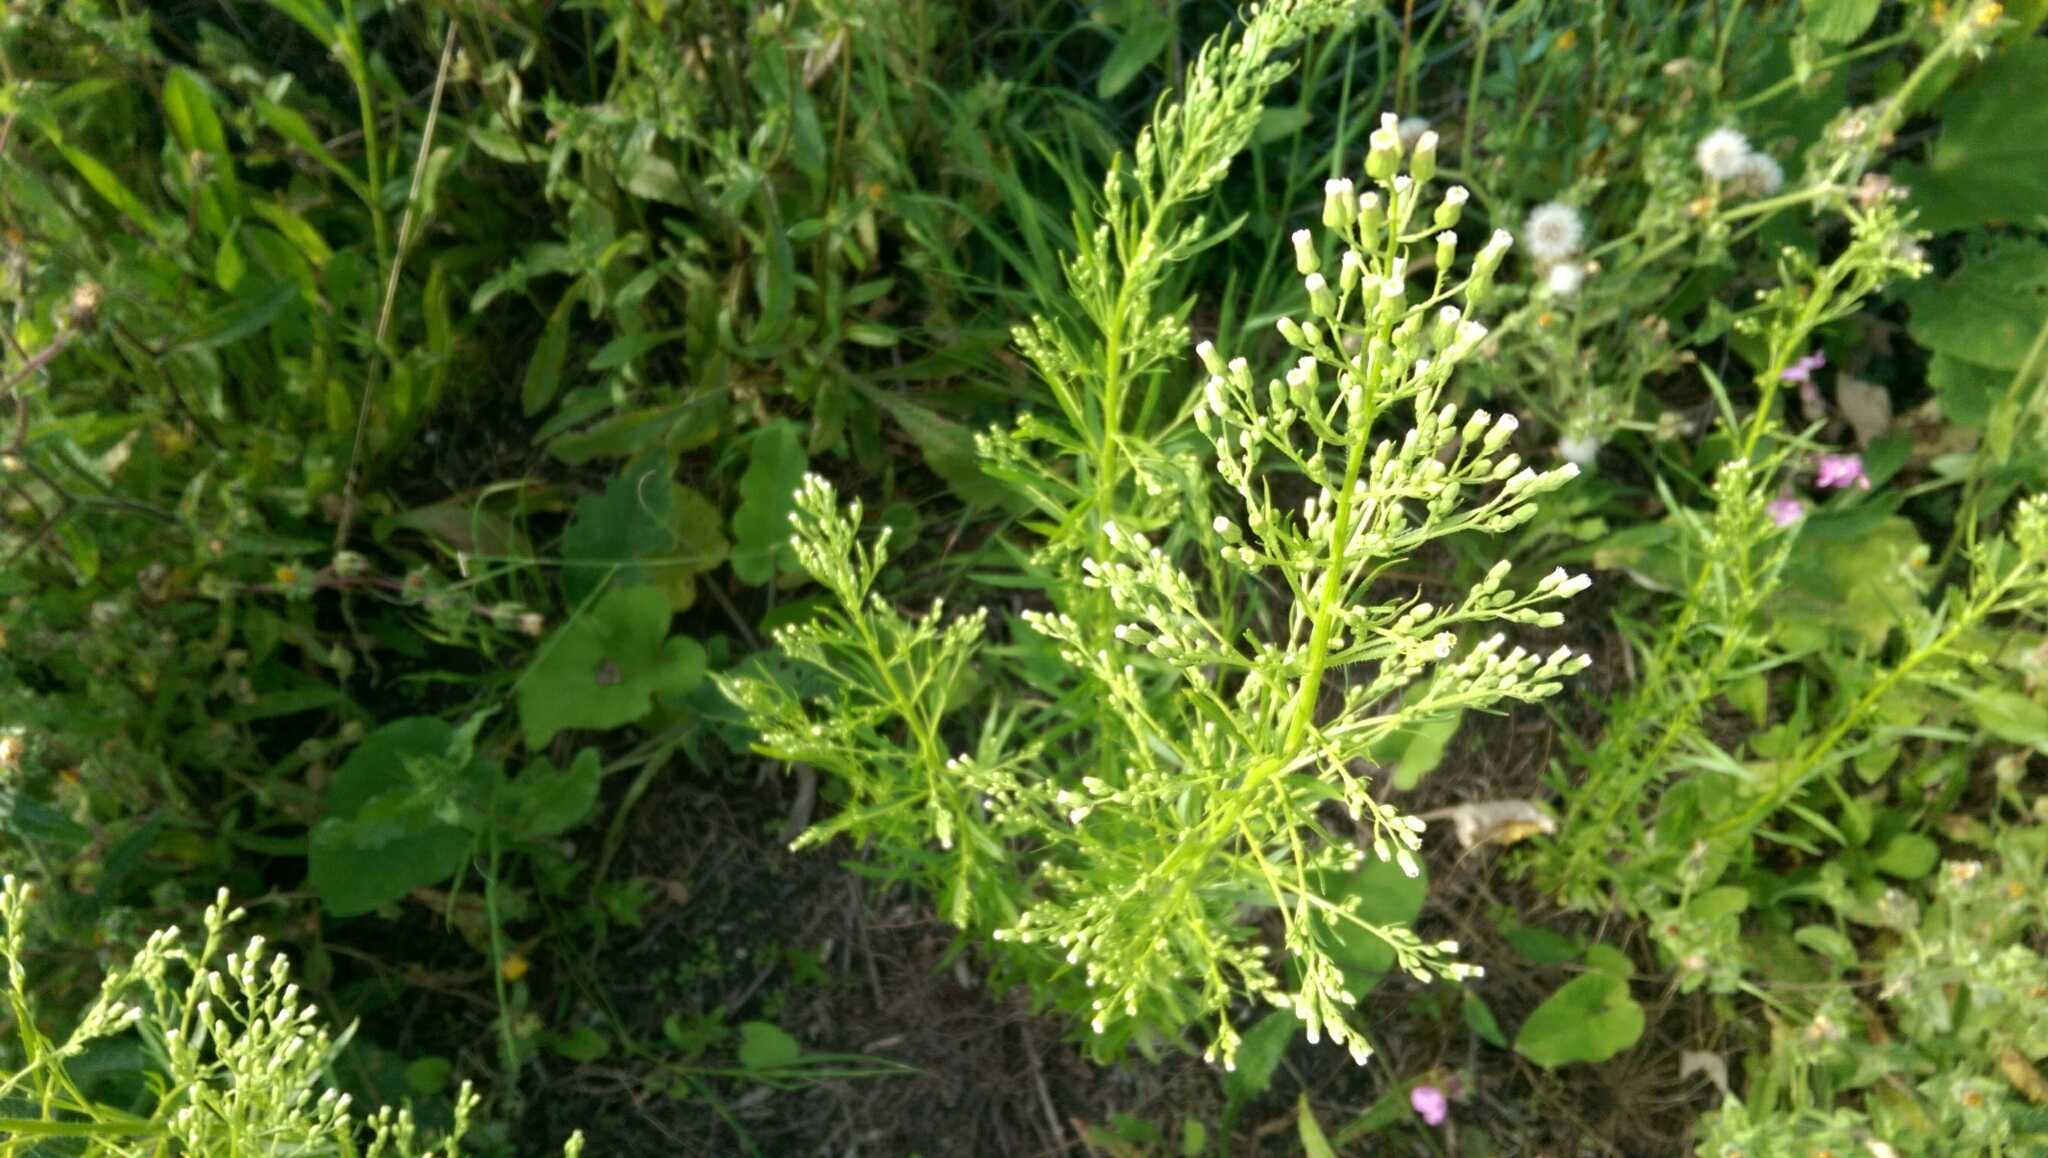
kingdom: Plantae
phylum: Tracheophyta
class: Magnoliopsida
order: Asterales
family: Asteraceae
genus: Erigeron
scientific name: Erigeron canadensis
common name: Canadian fleabane
